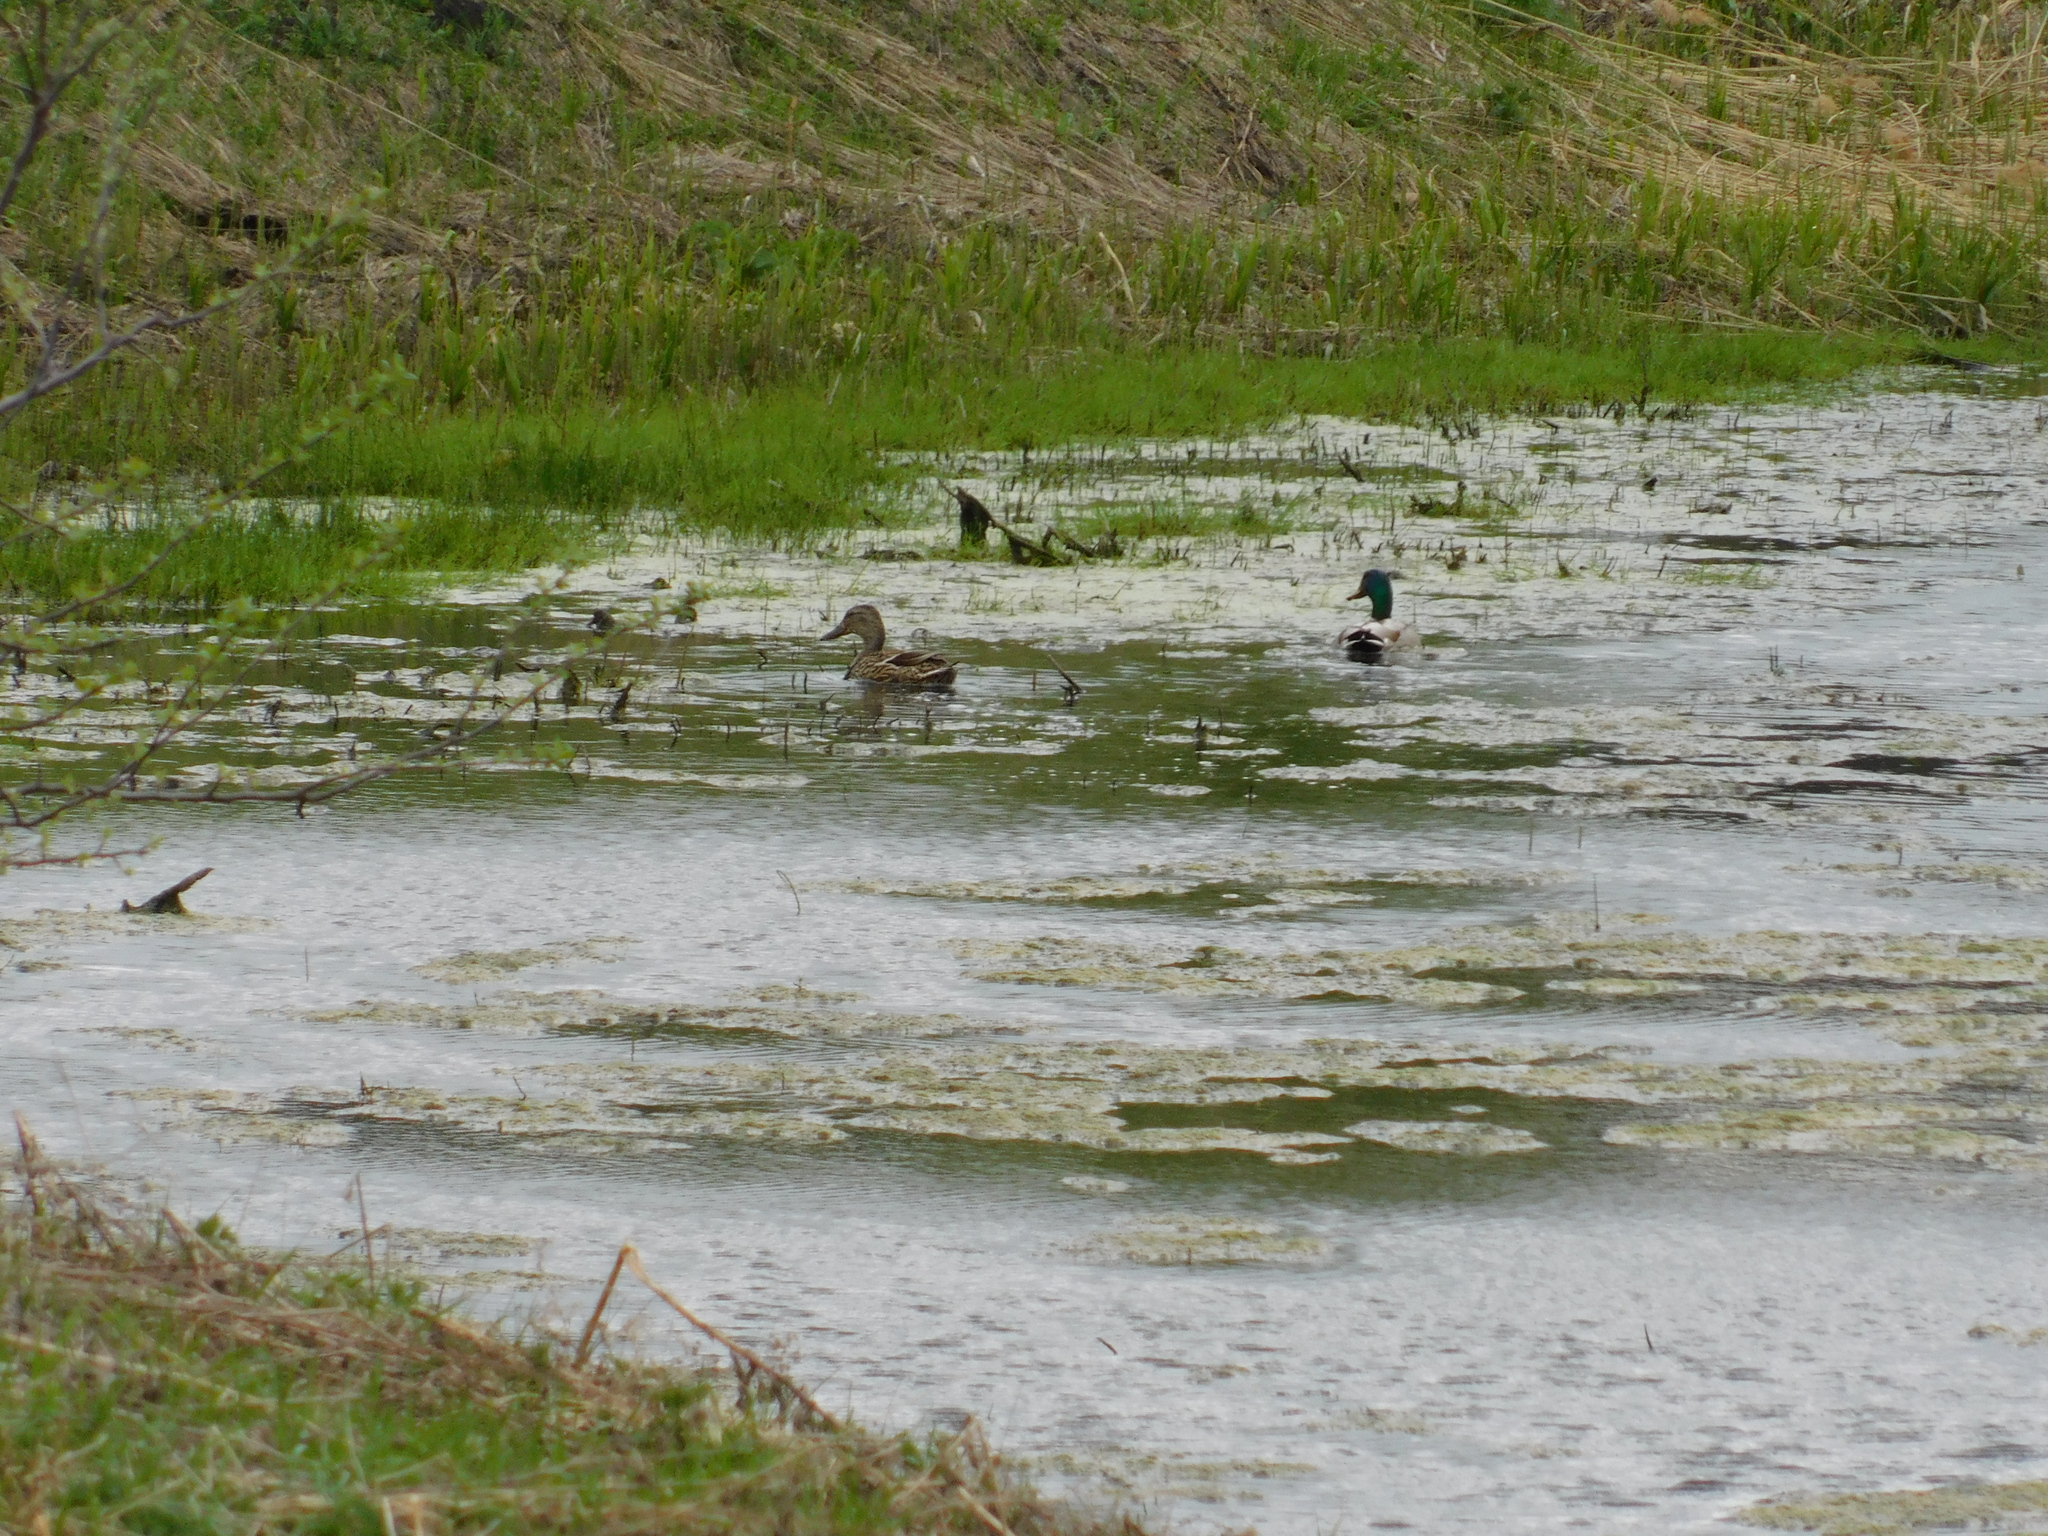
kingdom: Animalia
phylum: Chordata
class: Aves
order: Anseriformes
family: Anatidae
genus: Anas
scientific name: Anas platyrhynchos
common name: Mallard
